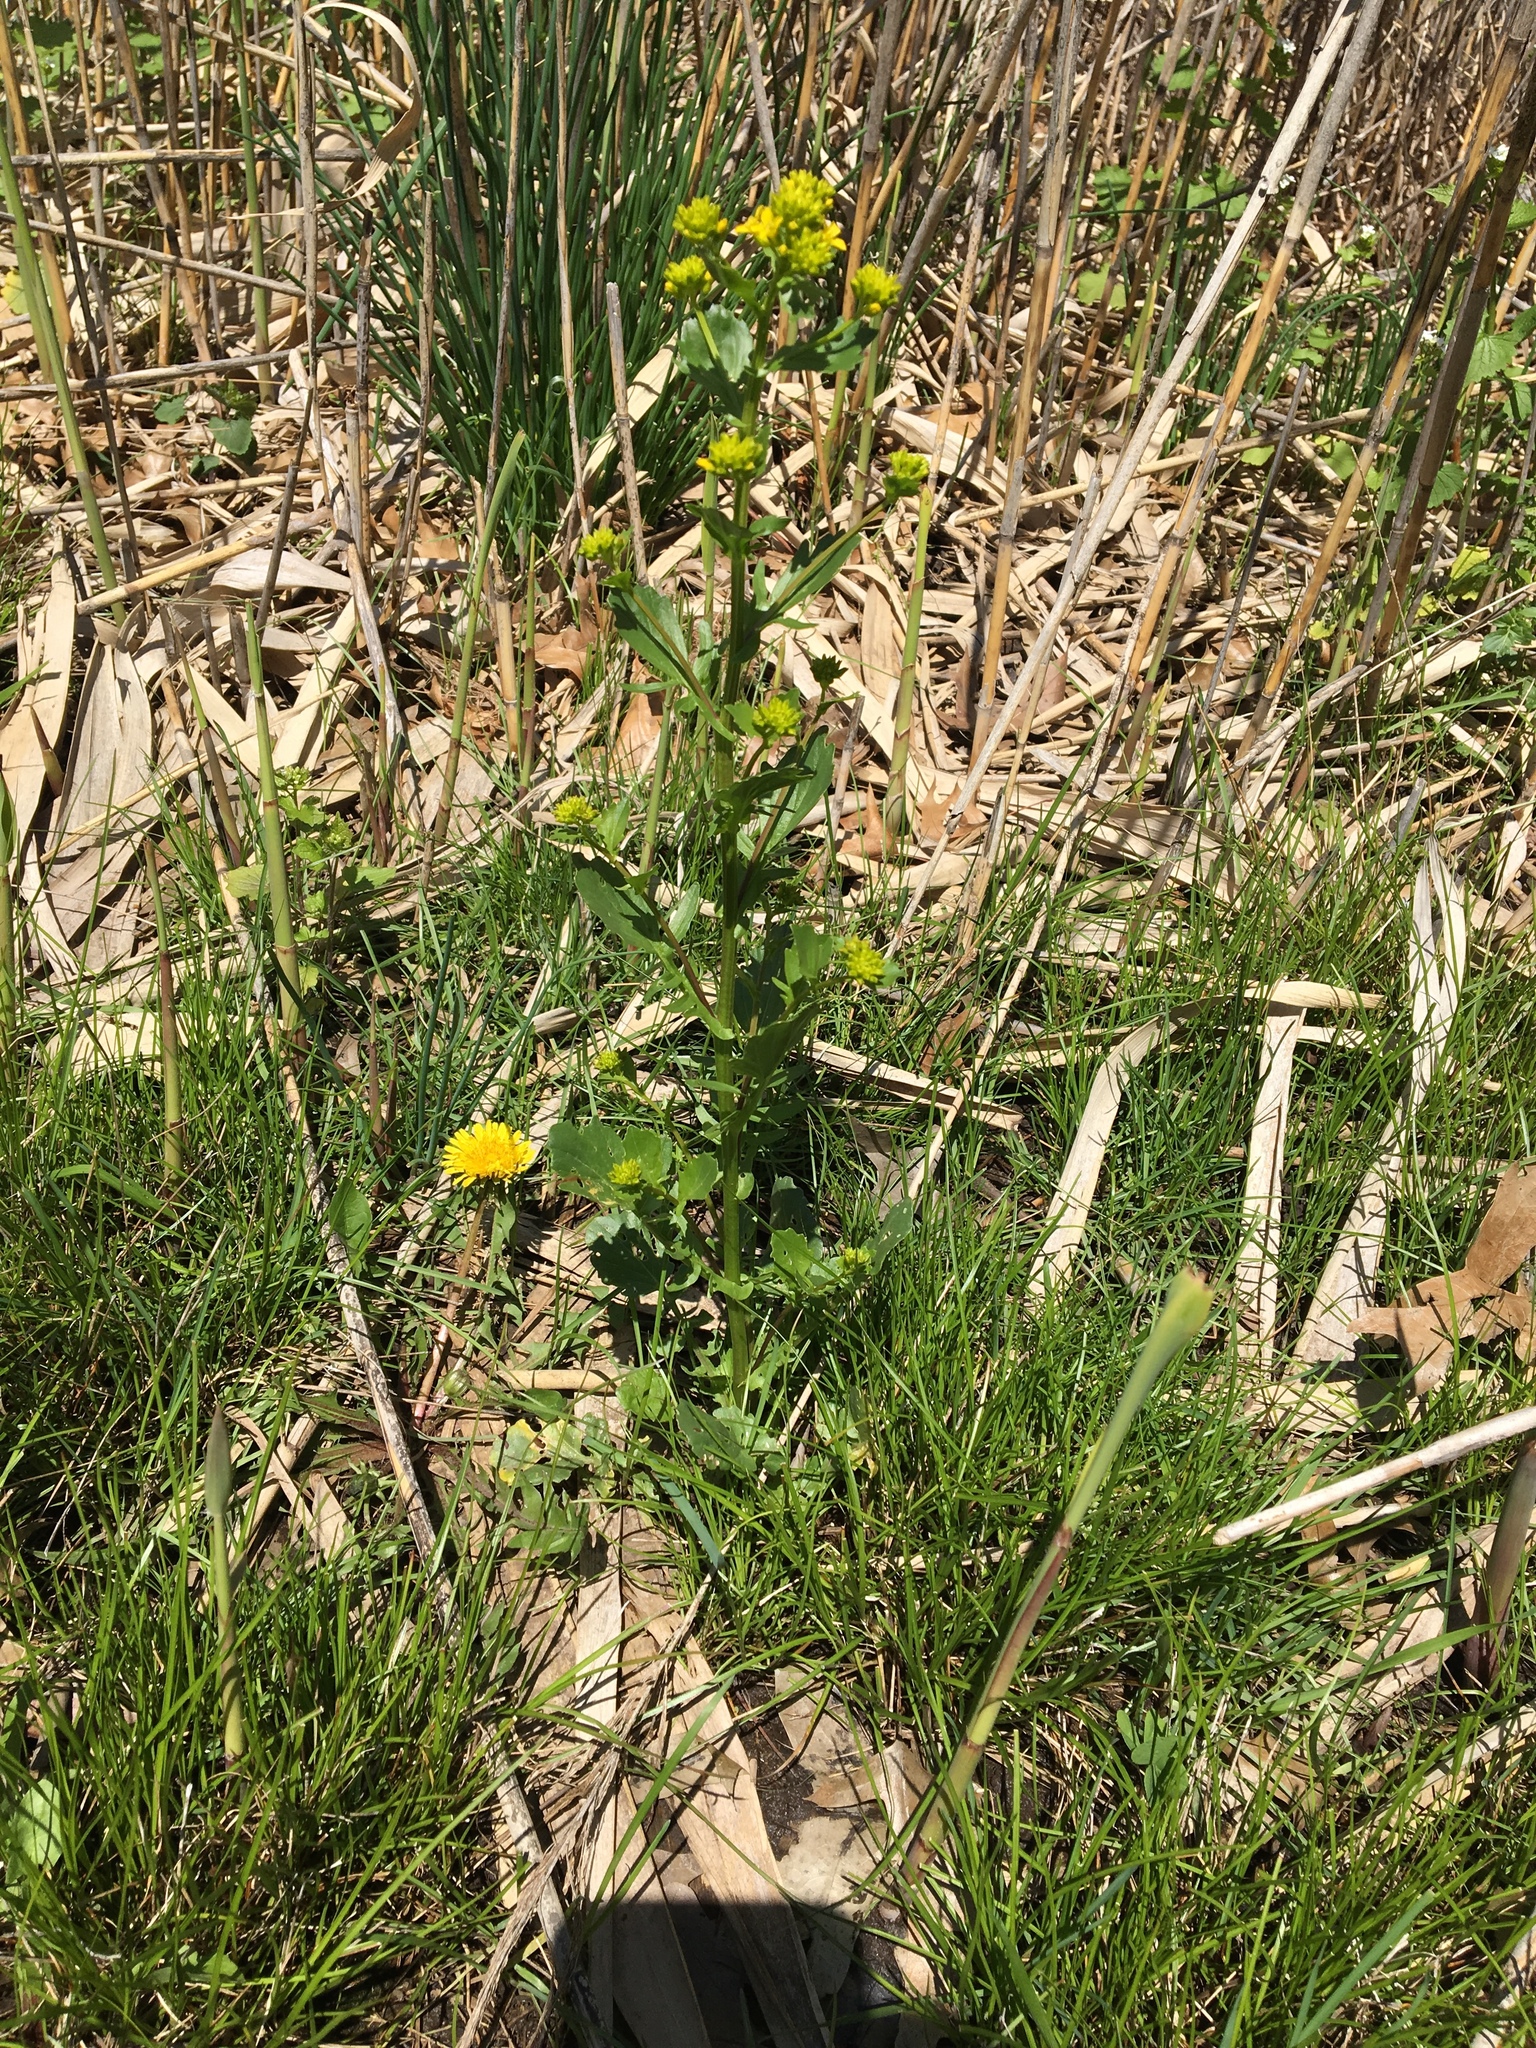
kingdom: Plantae
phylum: Tracheophyta
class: Magnoliopsida
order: Asterales
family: Asteraceae
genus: Senecio
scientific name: Senecio vulgaris
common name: Old-man-in-the-spring
